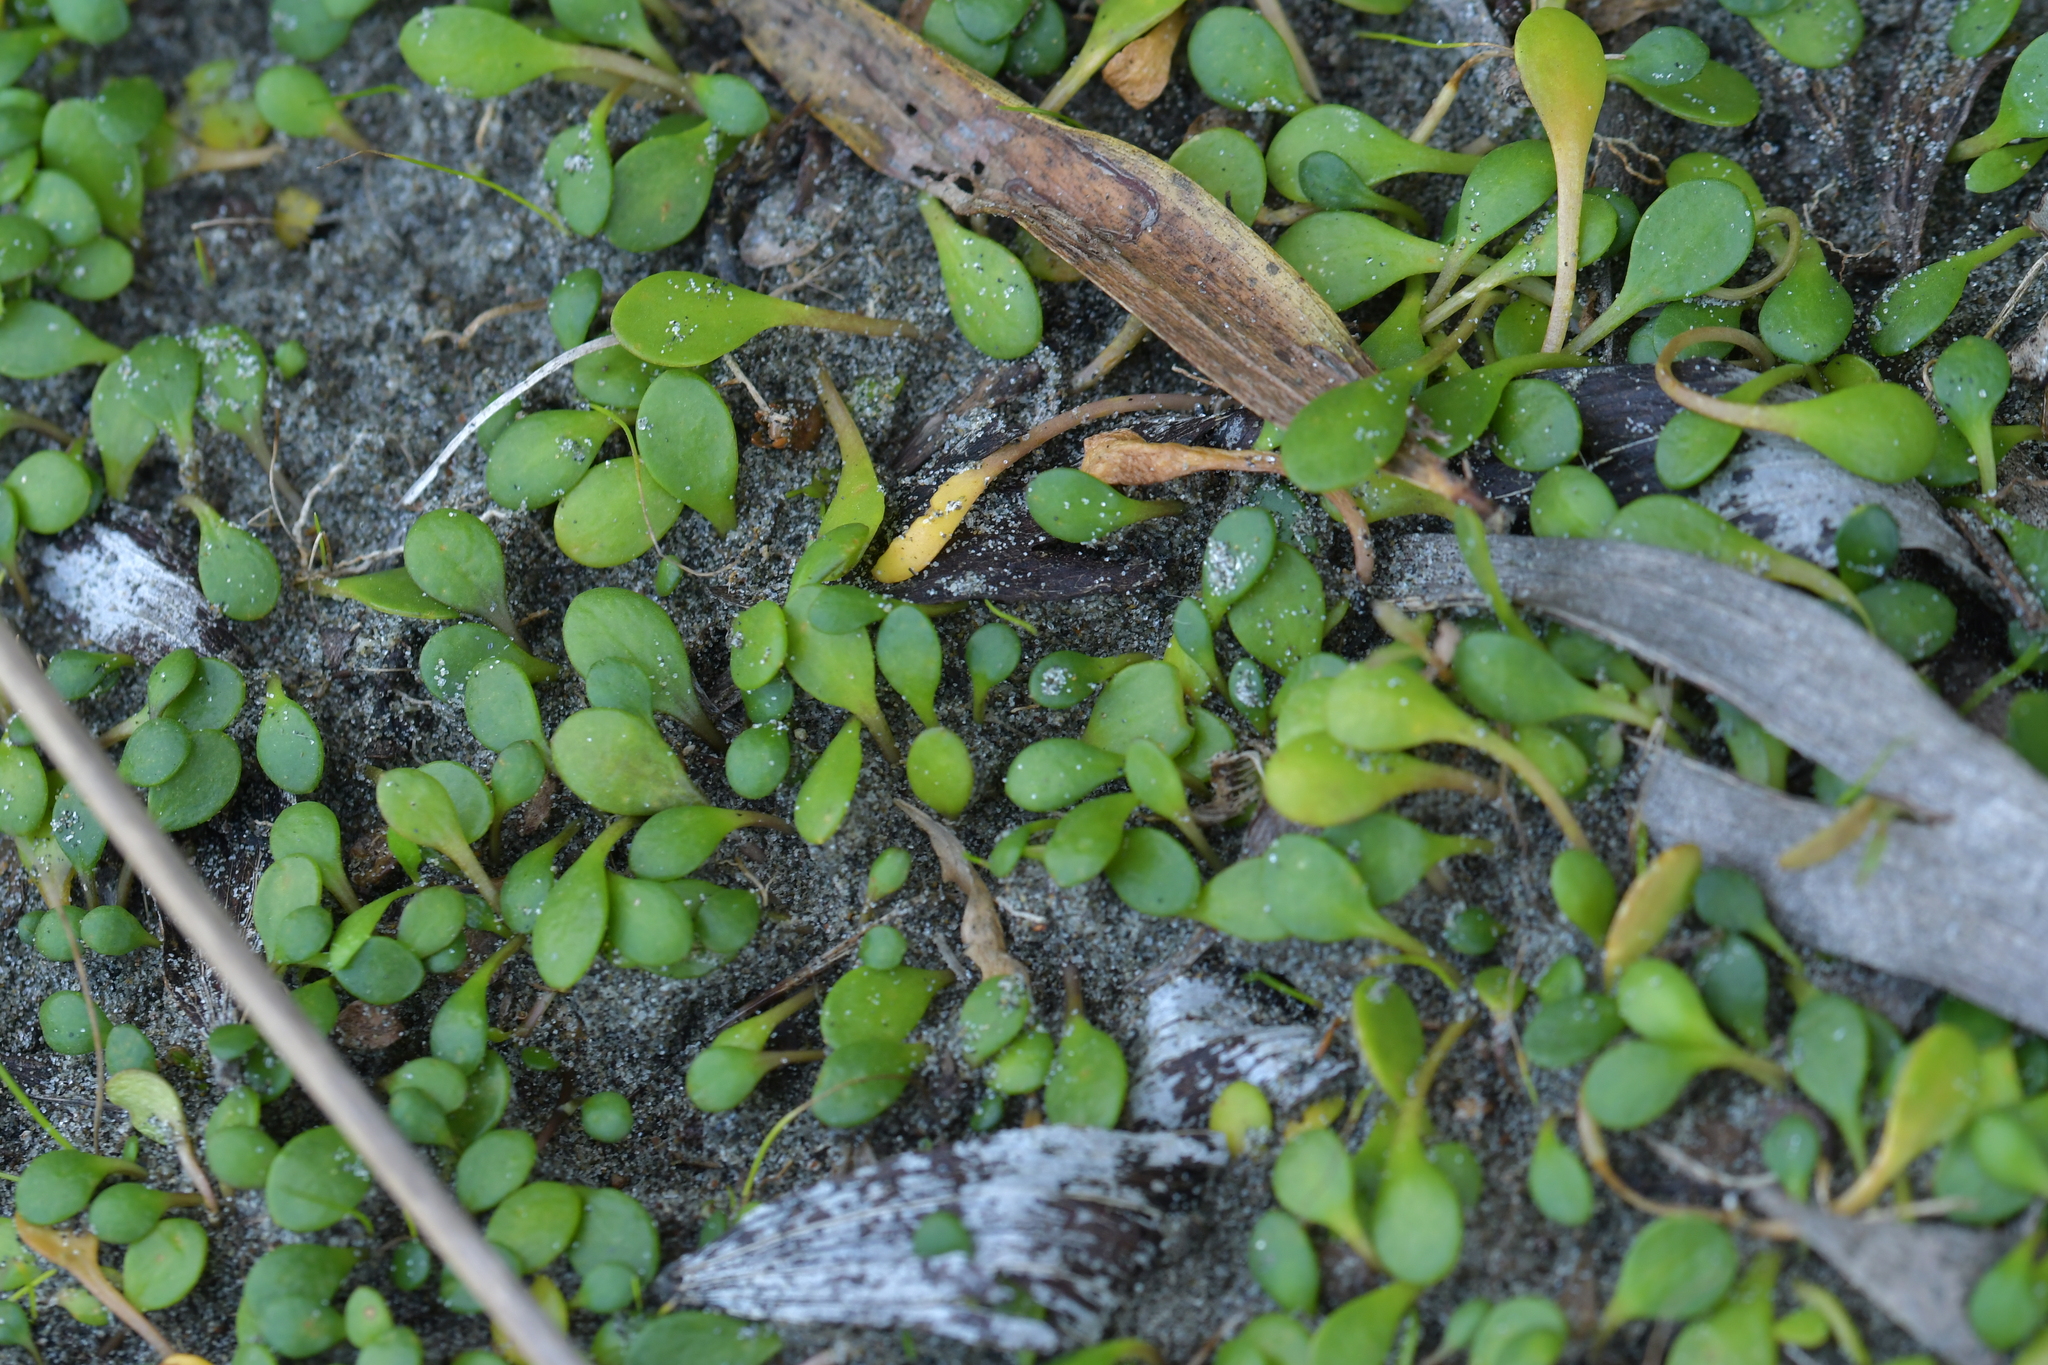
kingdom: Plantae
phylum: Tracheophyta
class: Magnoliopsida
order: Asterales
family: Goodeniaceae
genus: Goodenia
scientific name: Goodenia radicans
